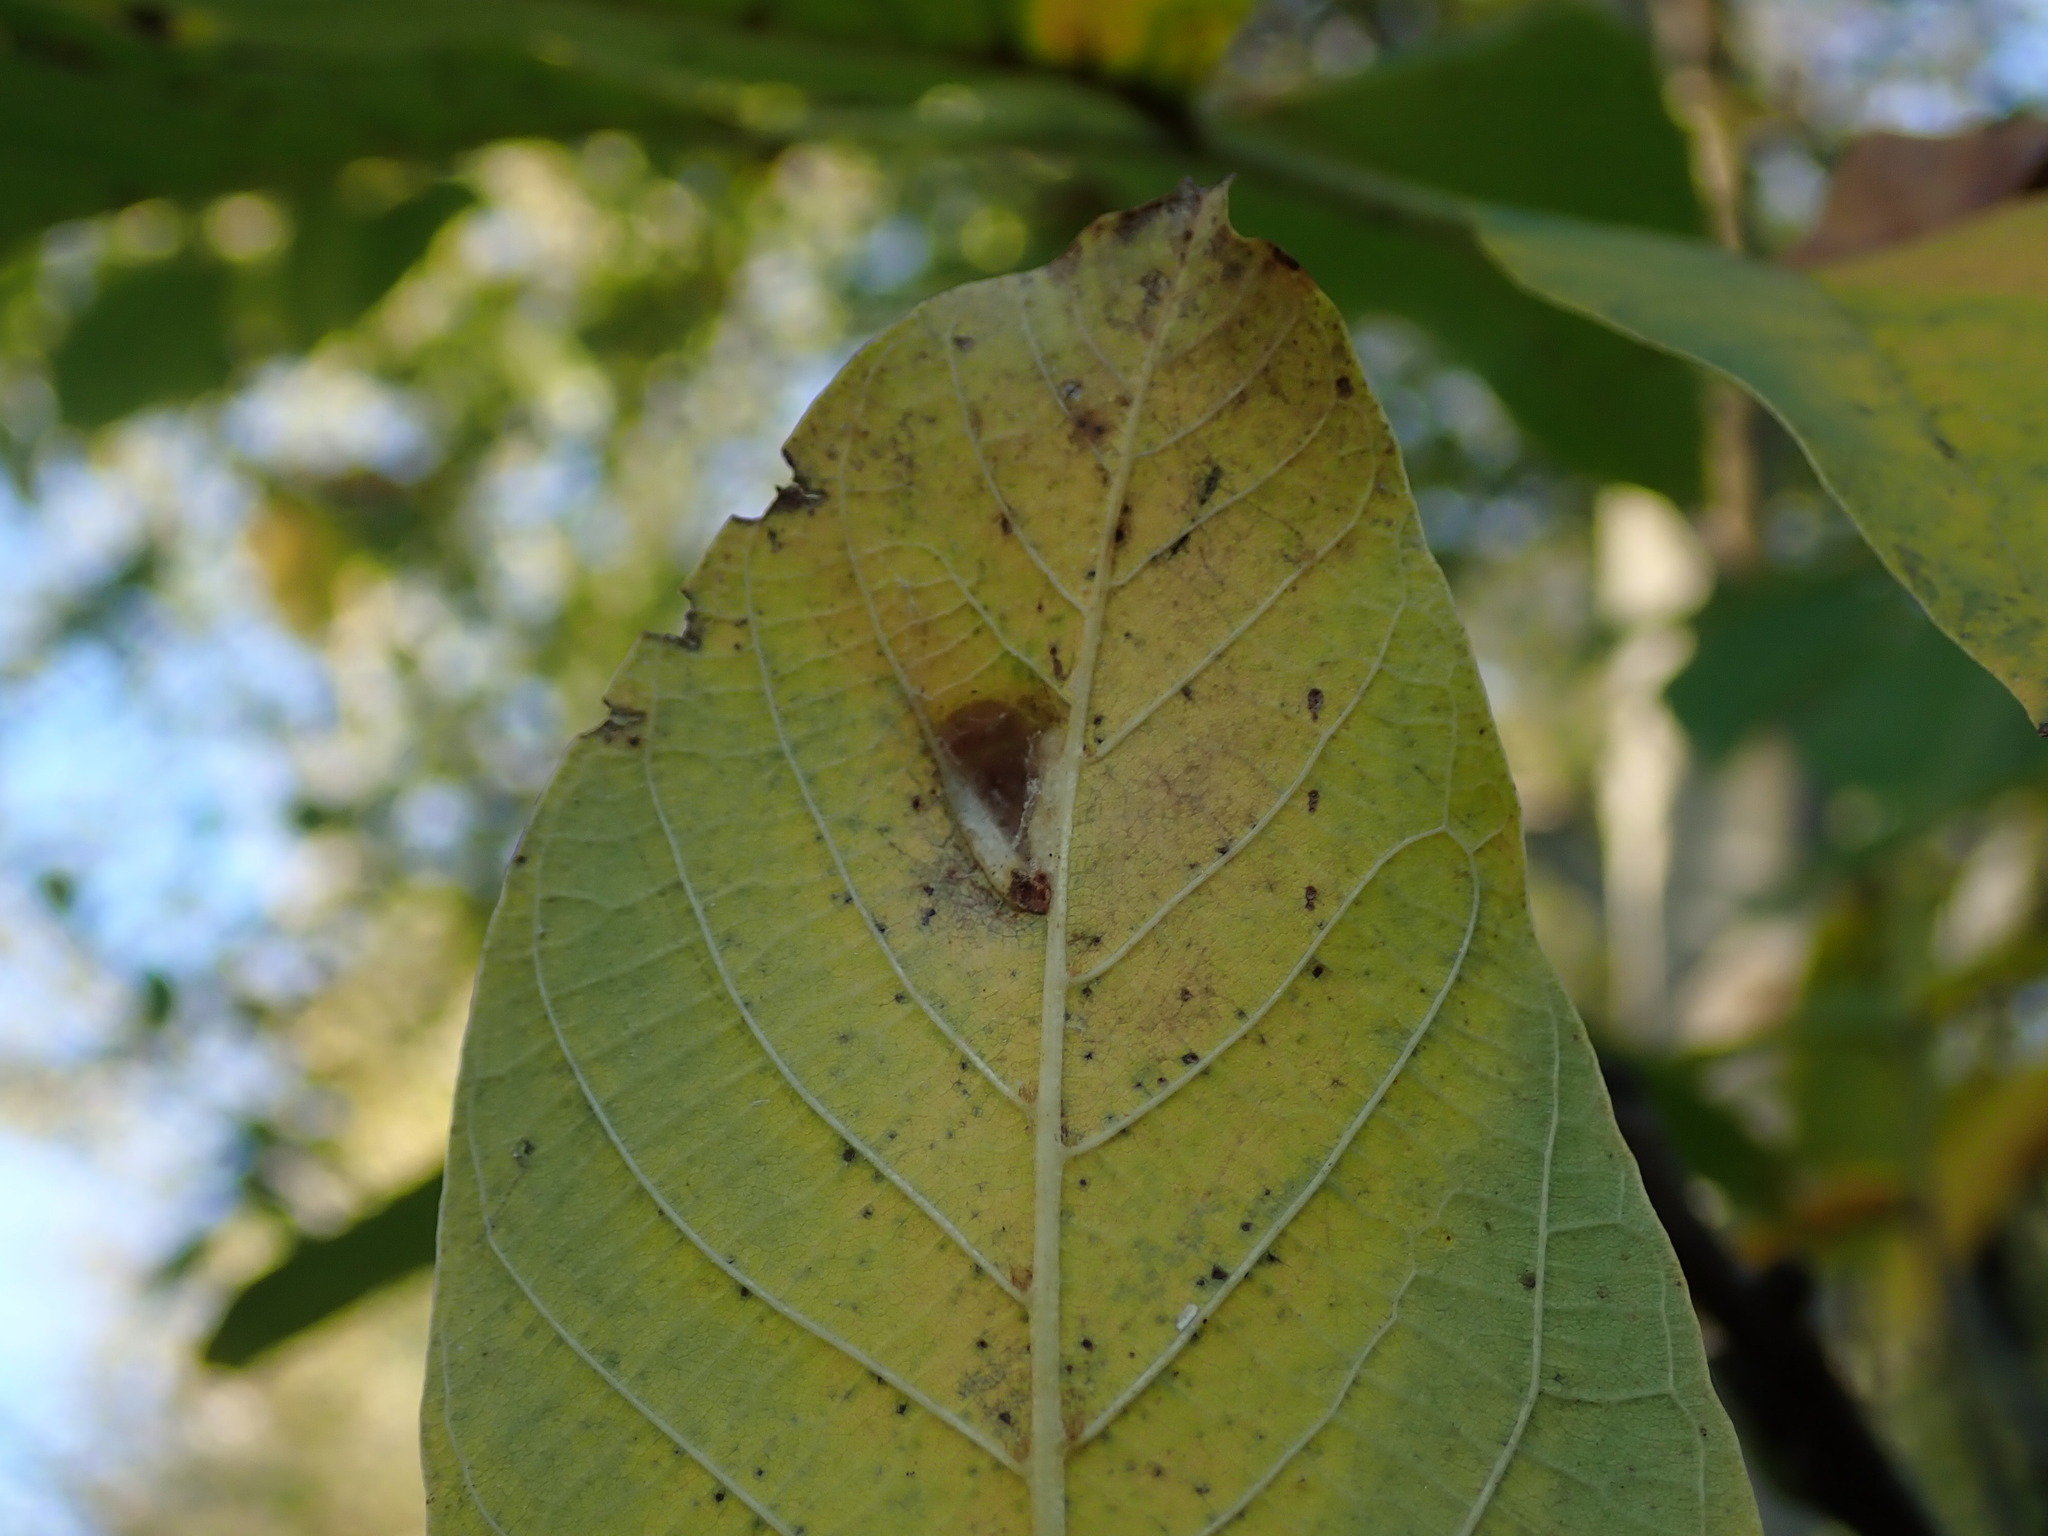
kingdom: Animalia
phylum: Arthropoda
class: Arachnida
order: Trombidiformes
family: Eriophyidae
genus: Aceria
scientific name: Aceria erinea
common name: Persian walnut erineum mite
